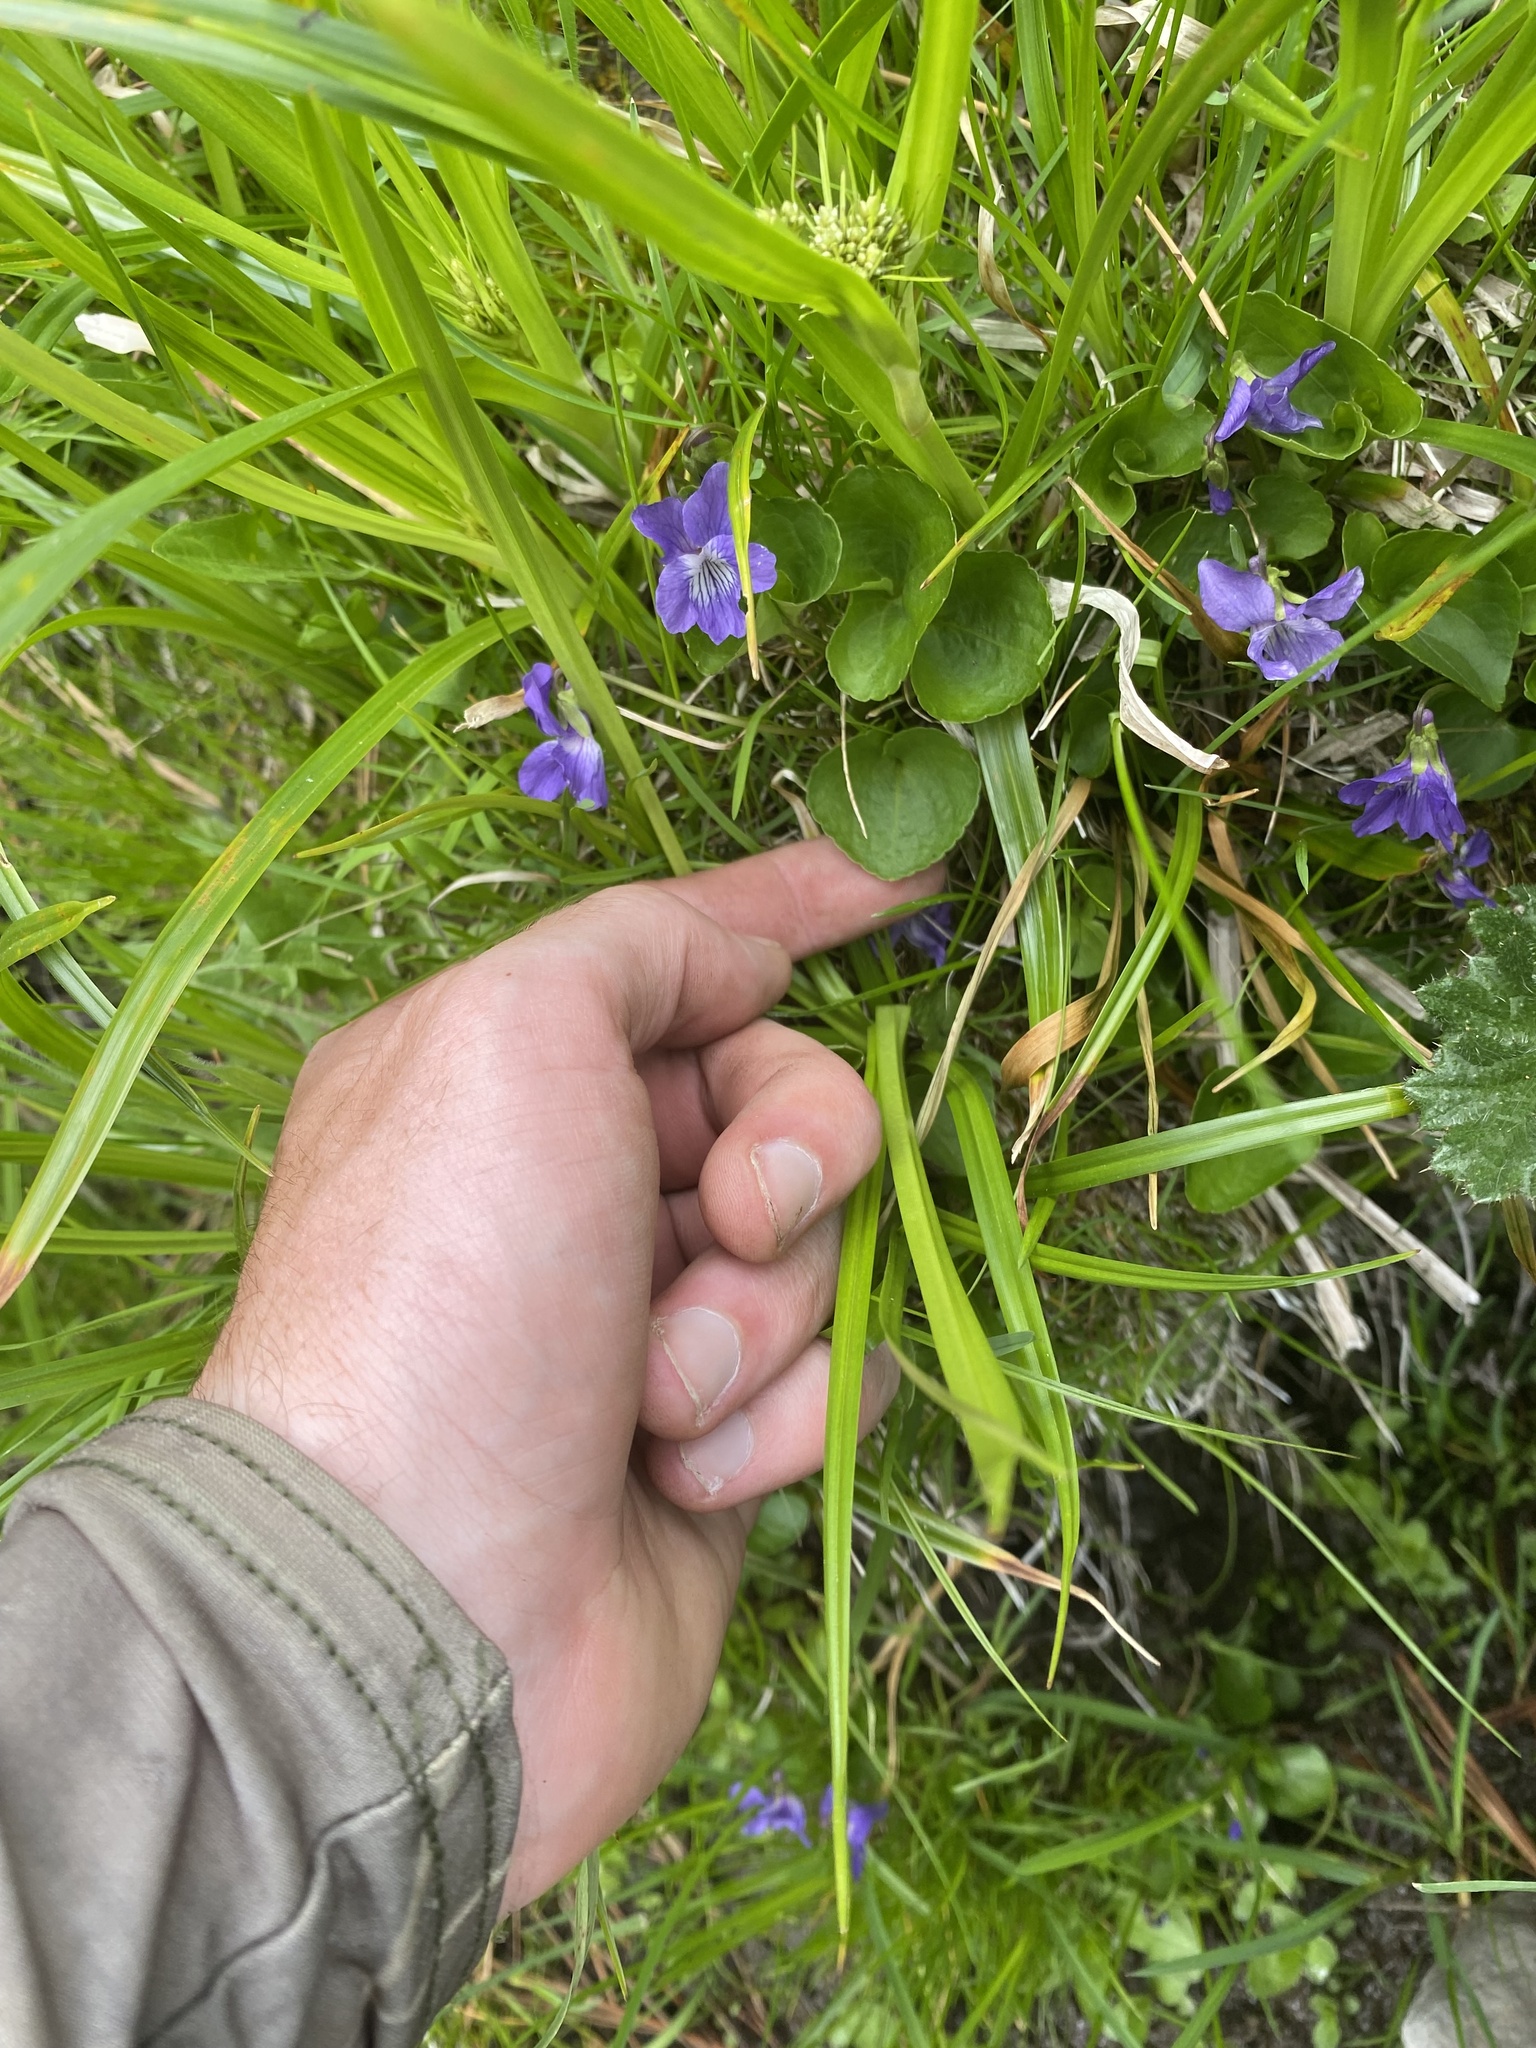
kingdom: Plantae
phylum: Tracheophyta
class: Magnoliopsida
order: Malpighiales
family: Violaceae
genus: Viola
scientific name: Viola nephrophylla
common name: Blue meadow violet
